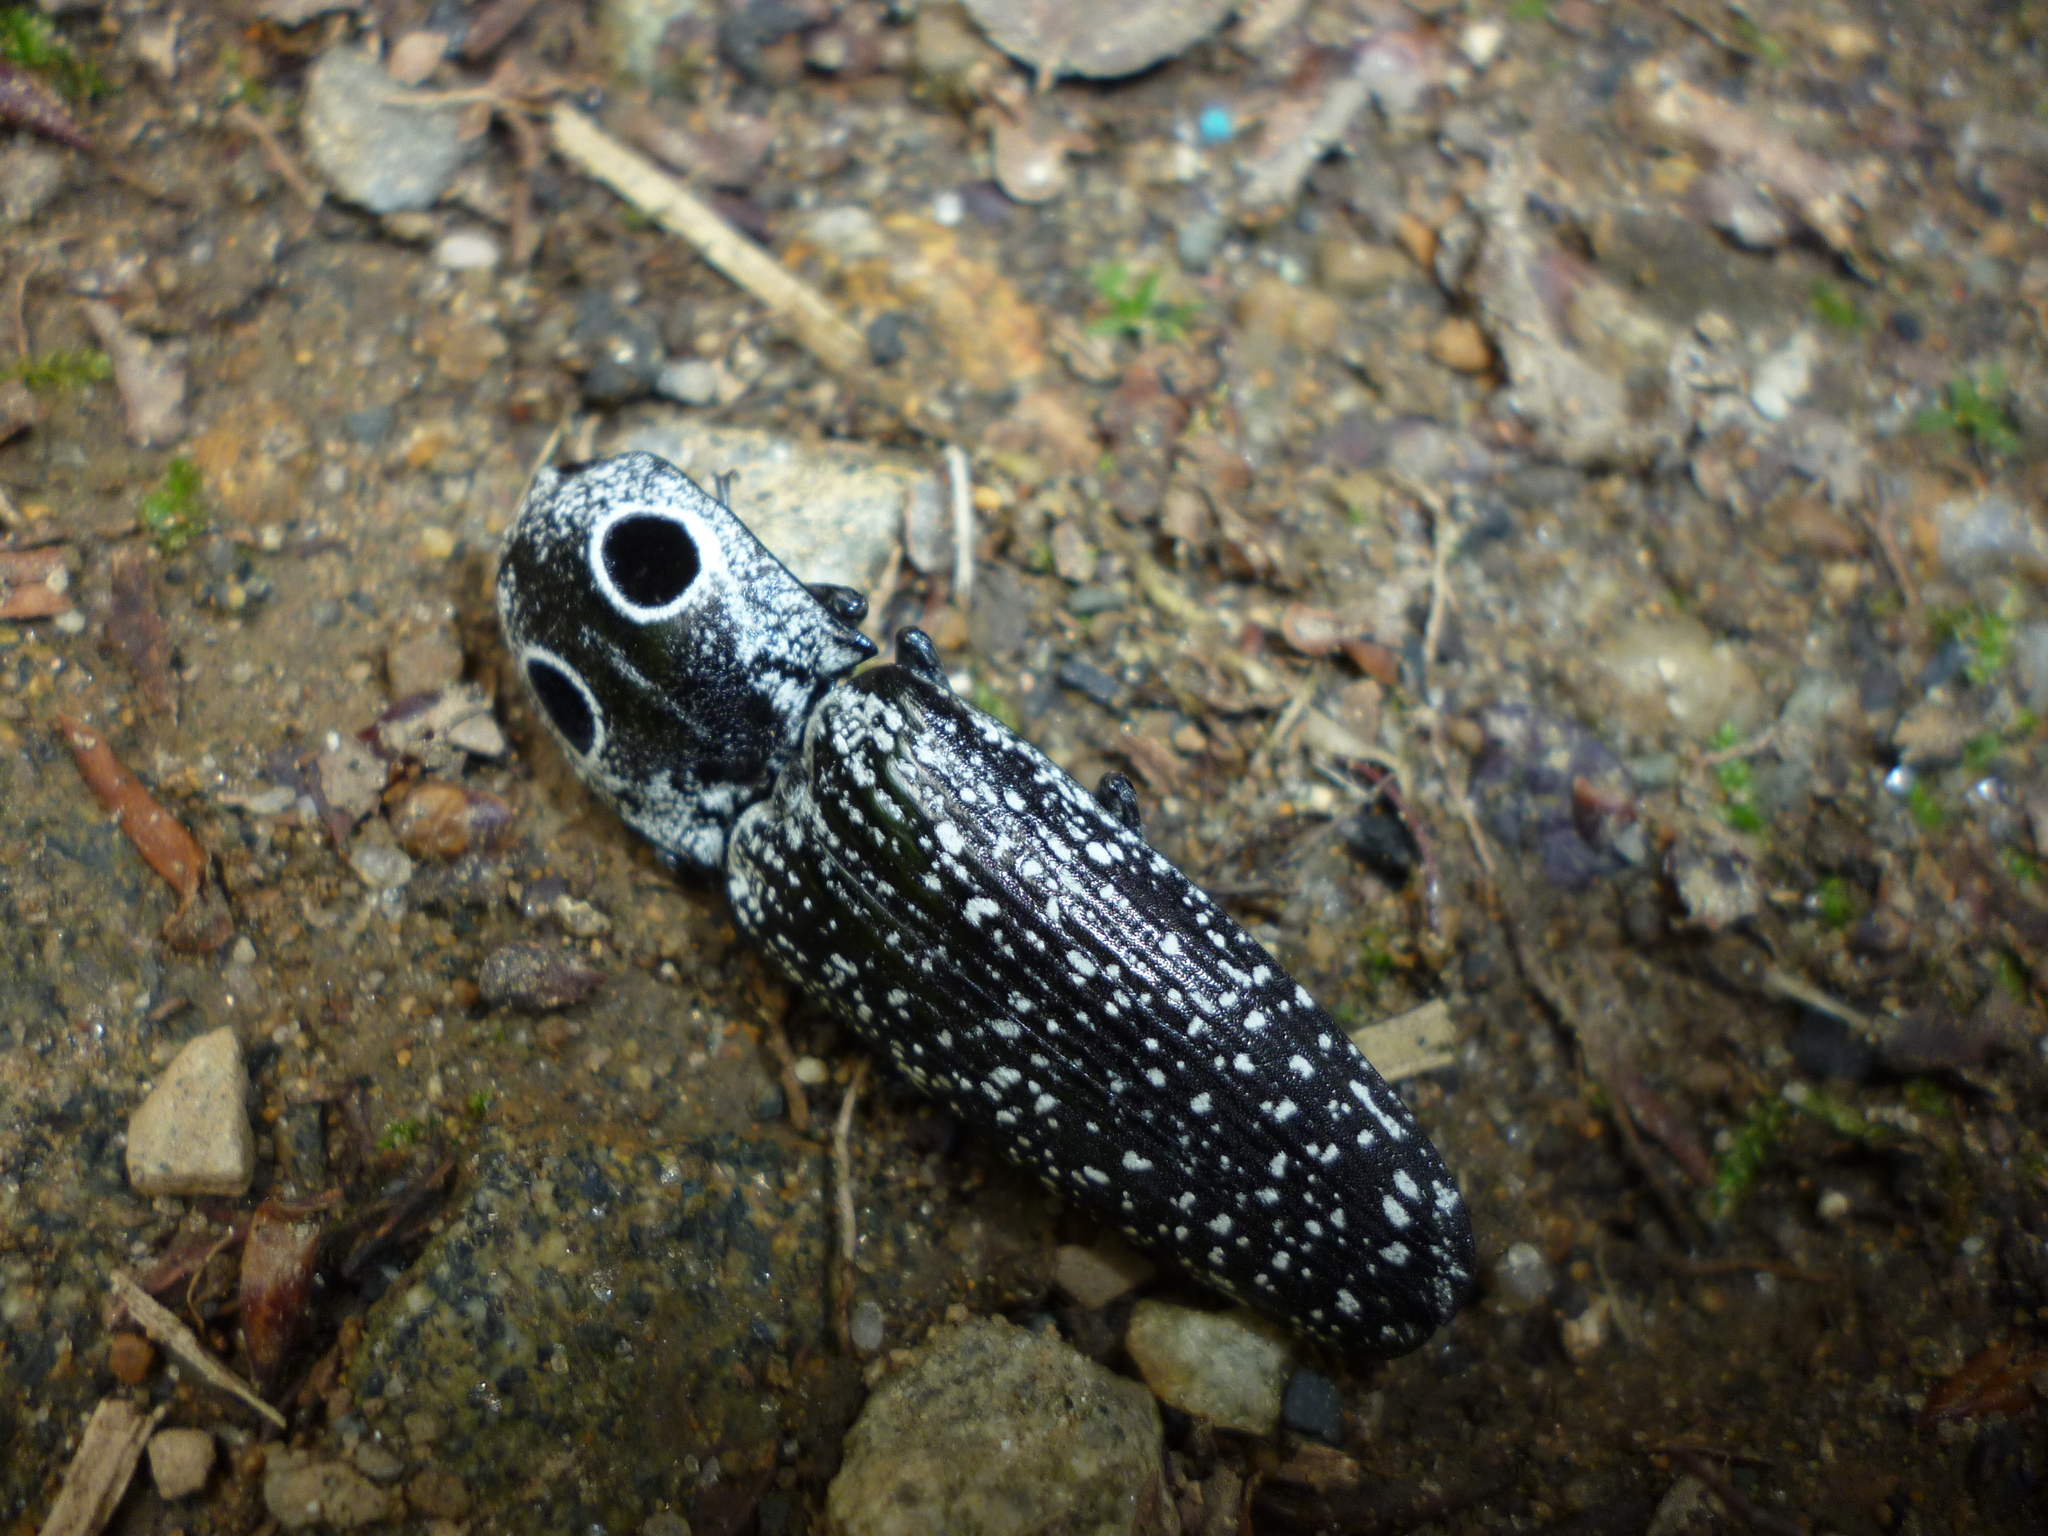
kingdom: Animalia
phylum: Arthropoda
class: Insecta
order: Coleoptera
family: Elateridae
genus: Alaus
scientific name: Alaus oculatus
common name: Eastern eyed click beetle
